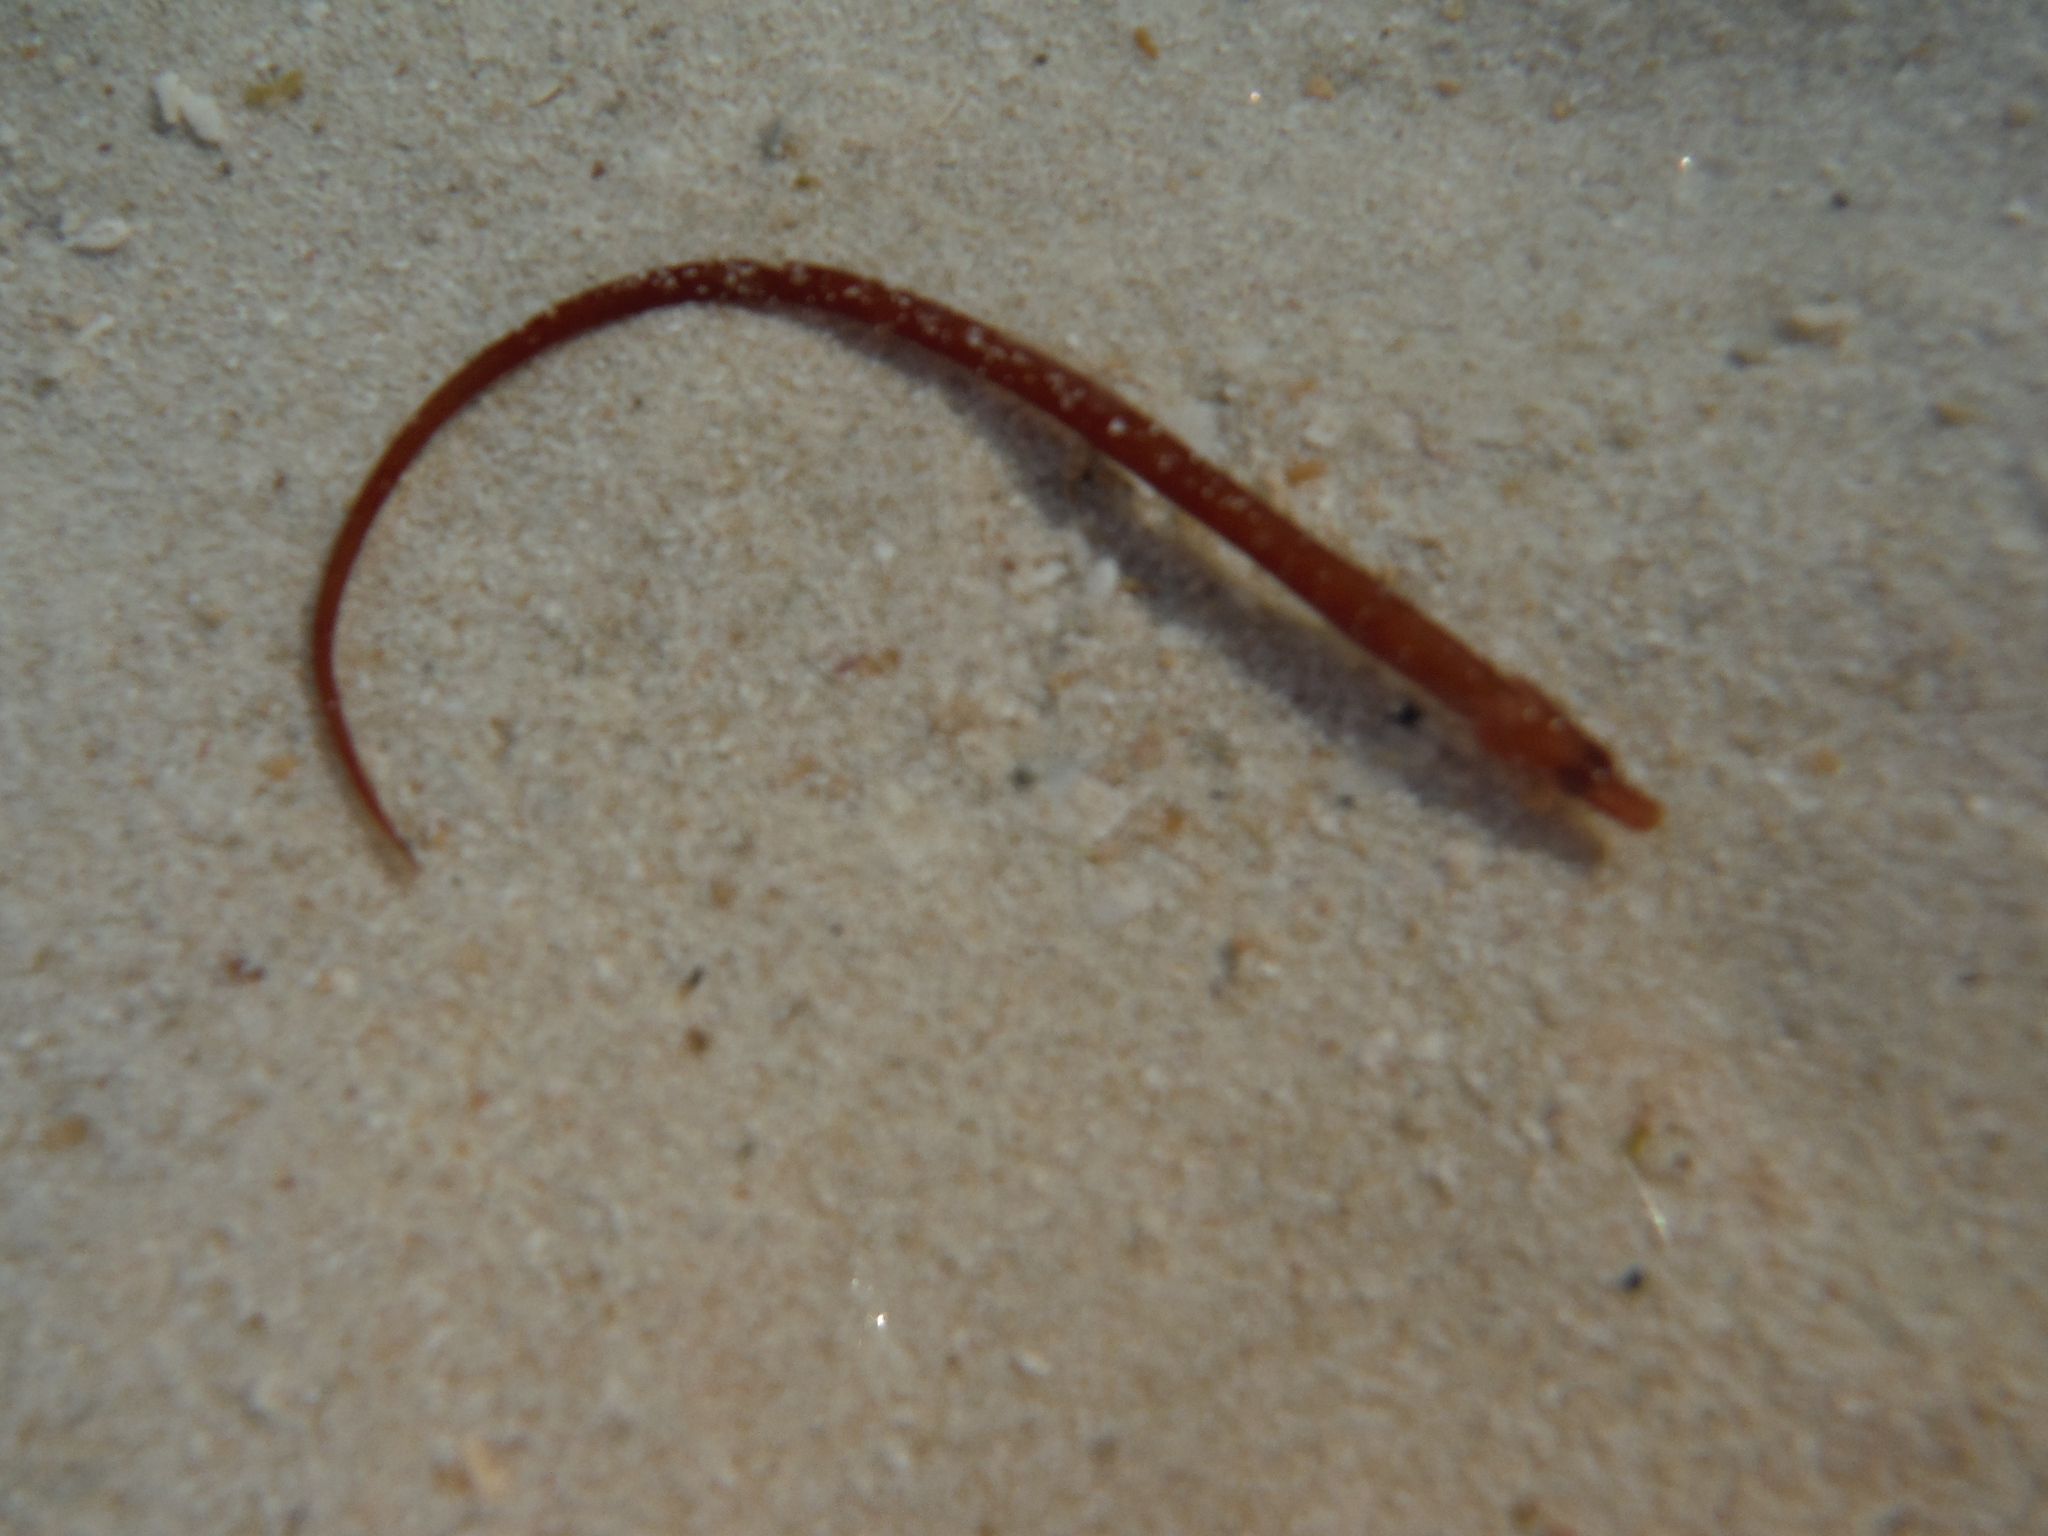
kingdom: Animalia
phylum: Chordata
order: Syngnathiformes
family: Syngnathidae
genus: Syngnathus
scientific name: Syngnathus makaxi
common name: Makax's pipefish
